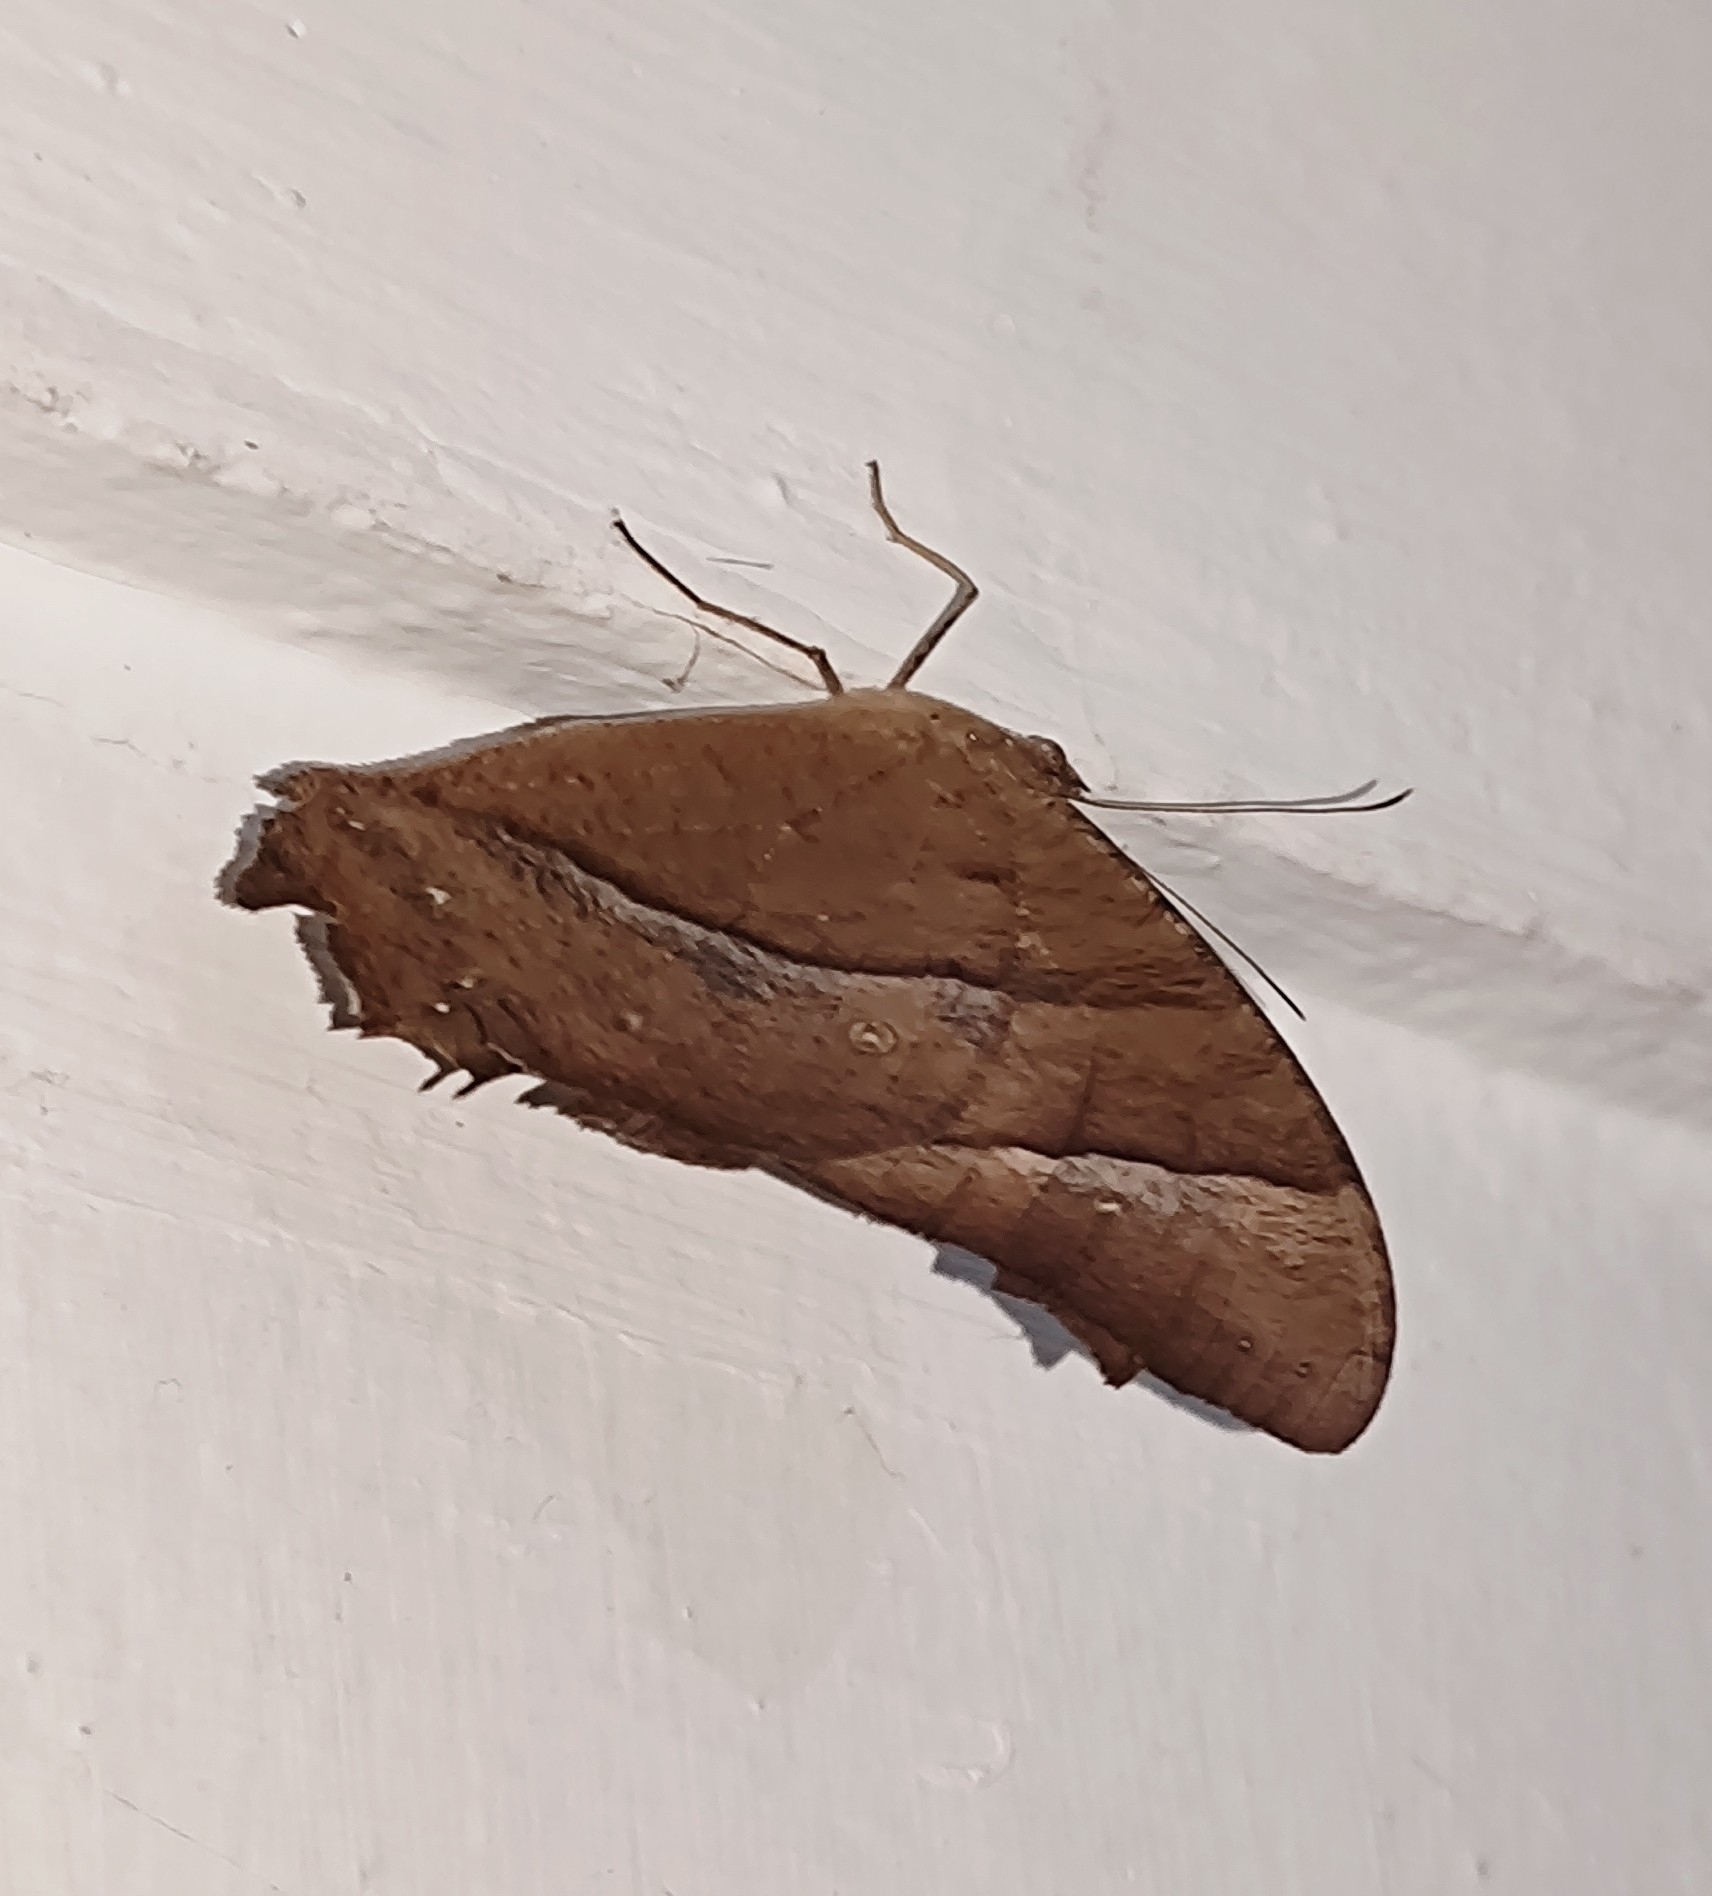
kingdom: Animalia
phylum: Arthropoda
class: Insecta
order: Lepidoptera
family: Nymphalidae
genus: Melanitis
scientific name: Melanitis leda
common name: Twilight brown
